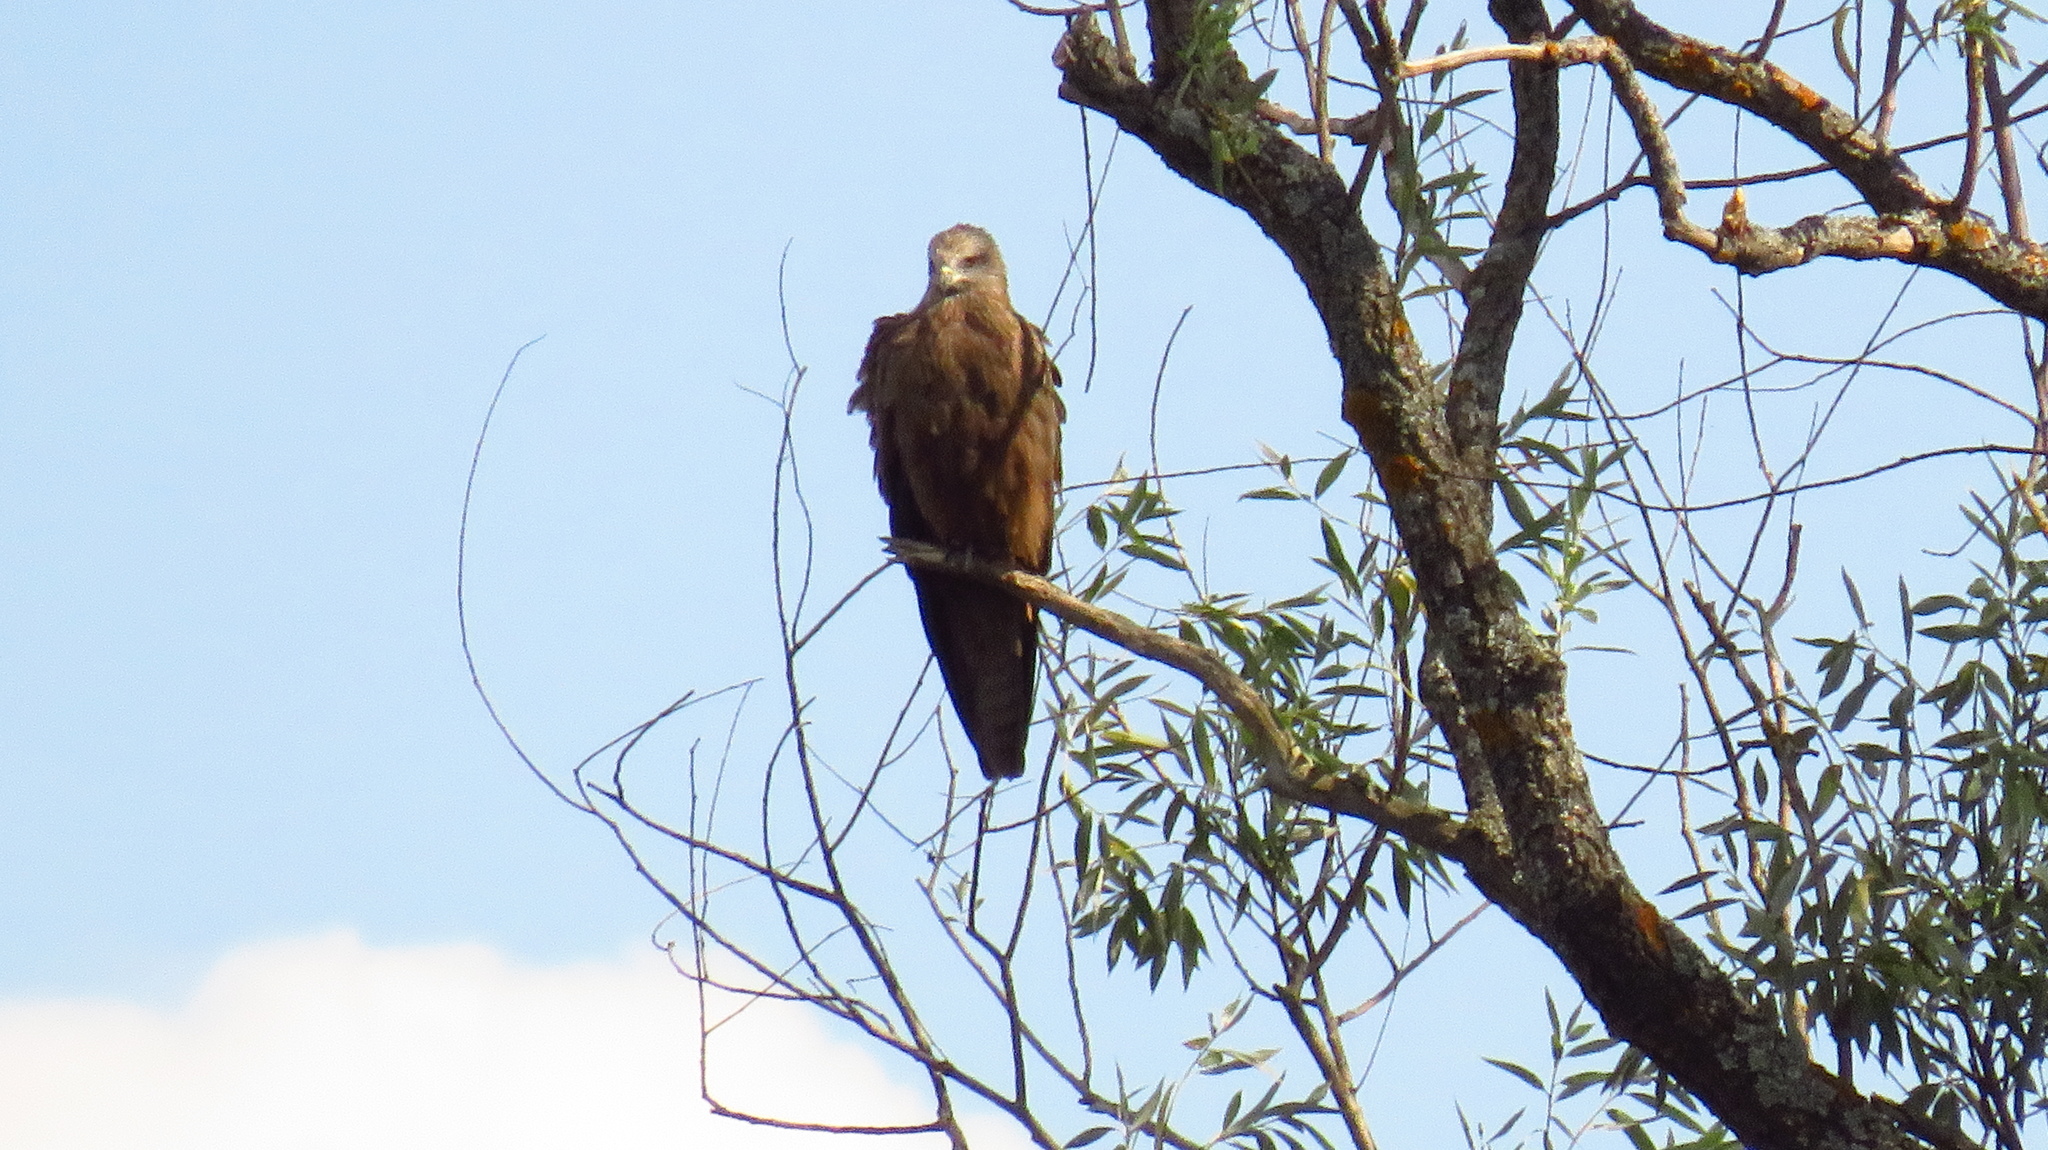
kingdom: Animalia
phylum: Chordata
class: Aves
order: Accipitriformes
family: Accipitridae
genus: Milvus
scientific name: Milvus migrans
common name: Black kite
